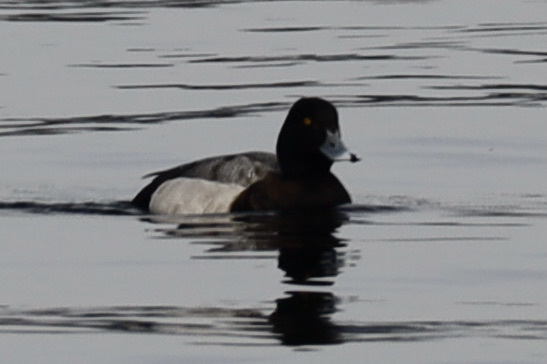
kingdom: Animalia
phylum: Chordata
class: Aves
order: Anseriformes
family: Anatidae
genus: Aythya
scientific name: Aythya marila
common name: Greater scaup
